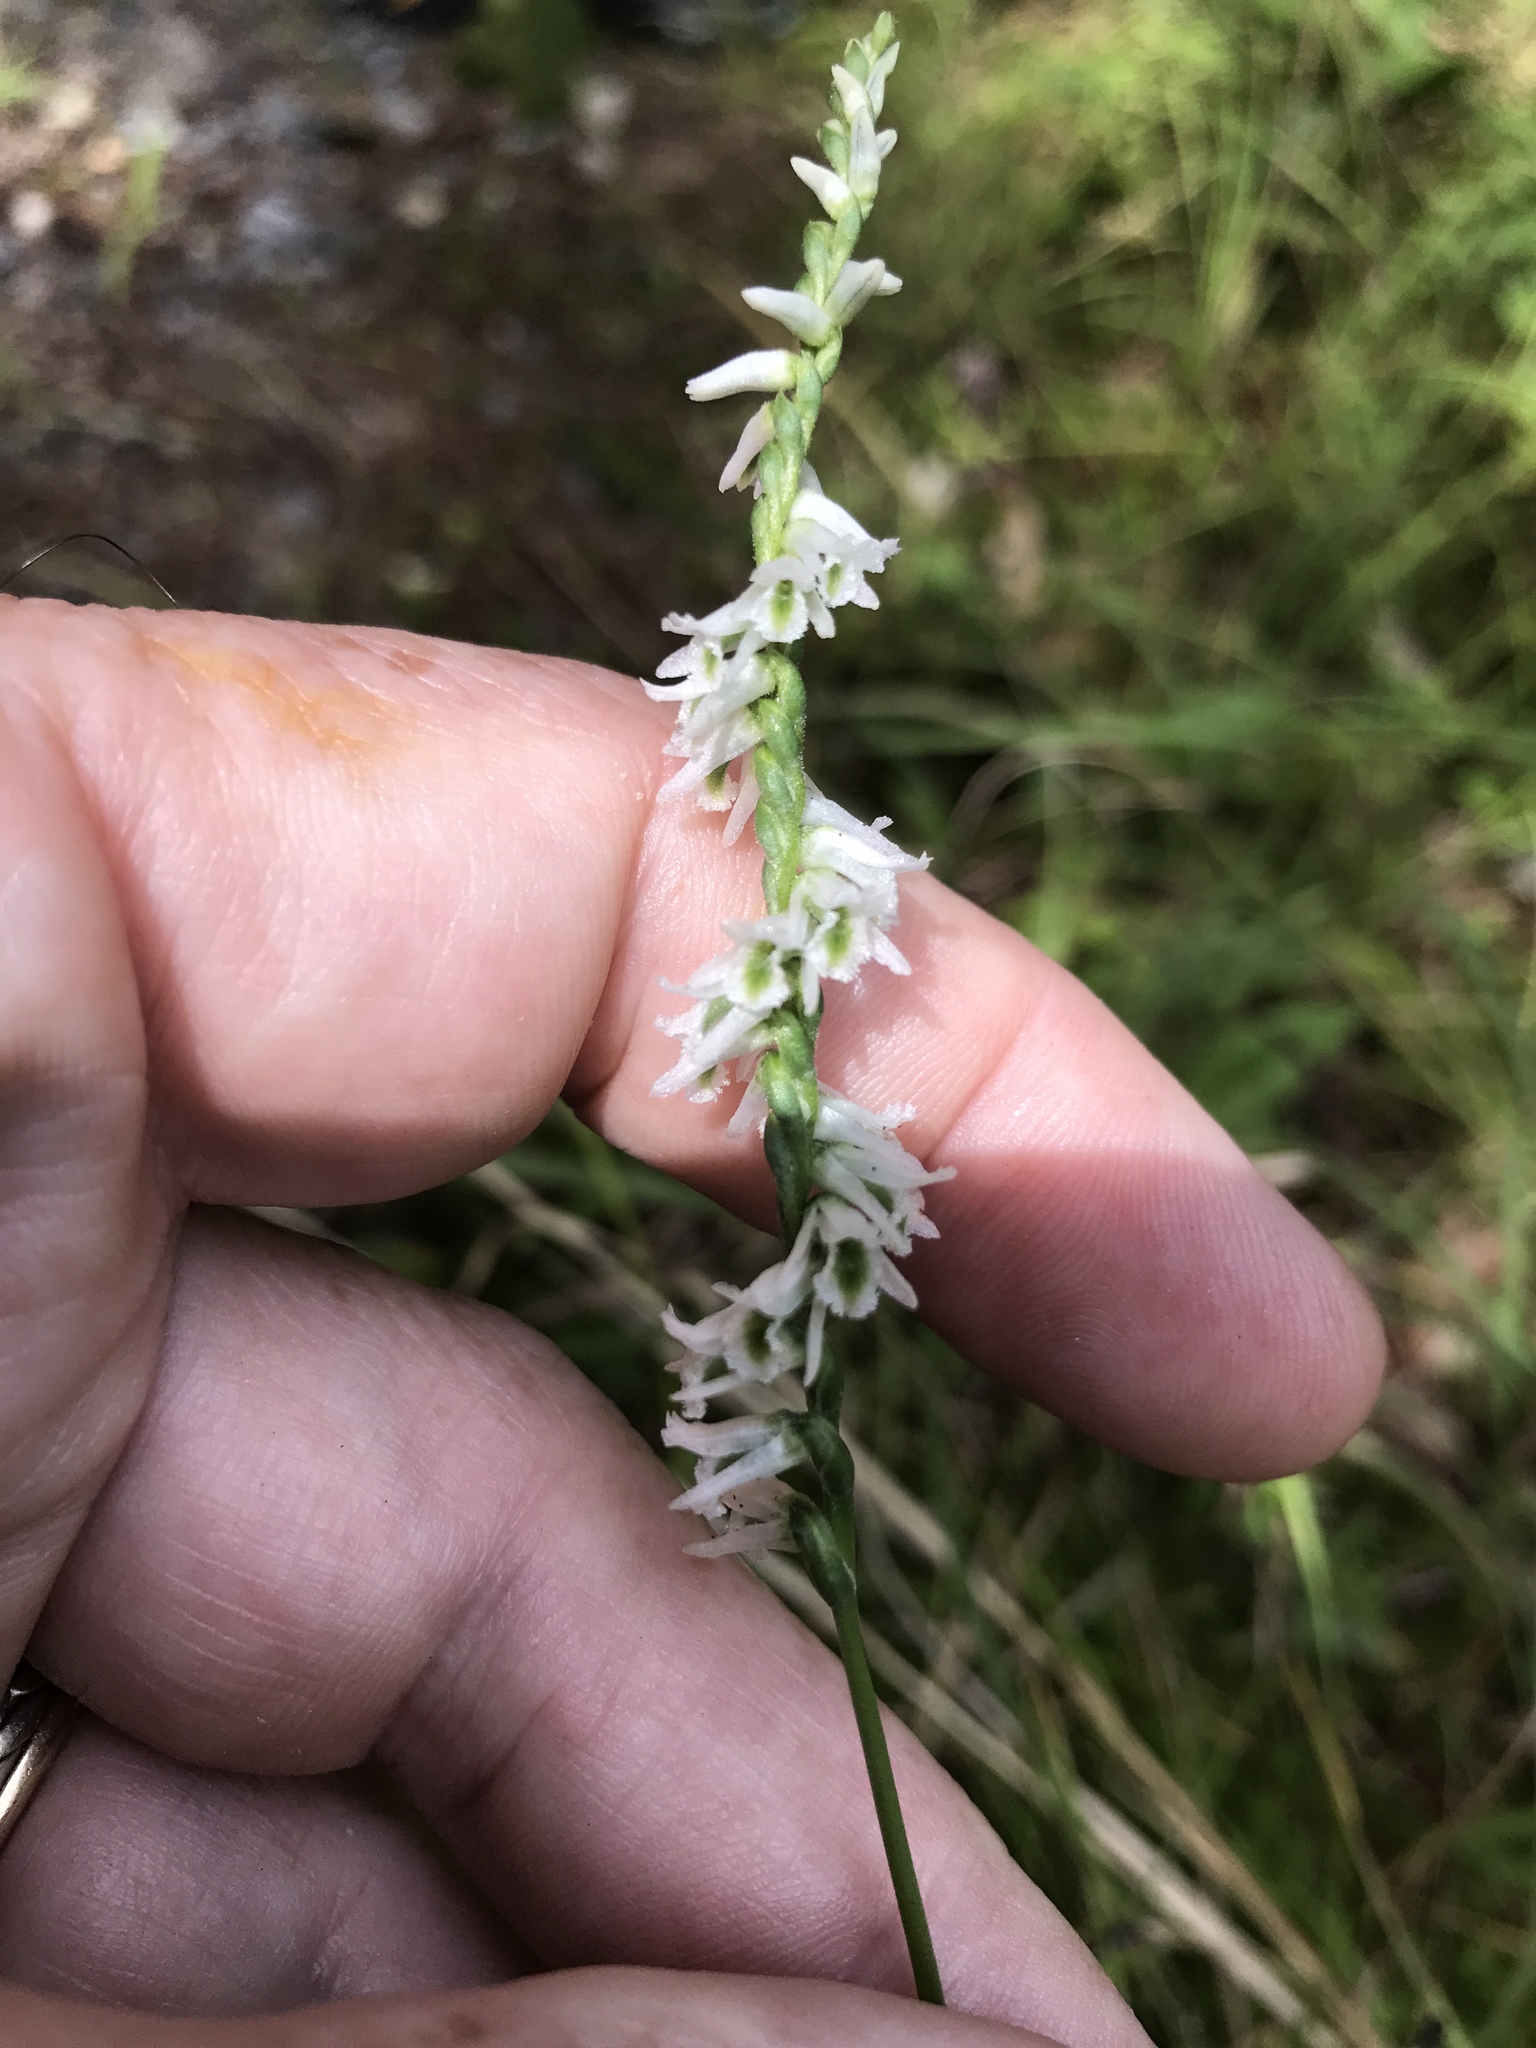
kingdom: Plantae
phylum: Tracheophyta
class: Liliopsida
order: Asparagales
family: Orchidaceae
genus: Spiranthes
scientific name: Spiranthes lacera
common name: Northern slender ladies'-tresses
